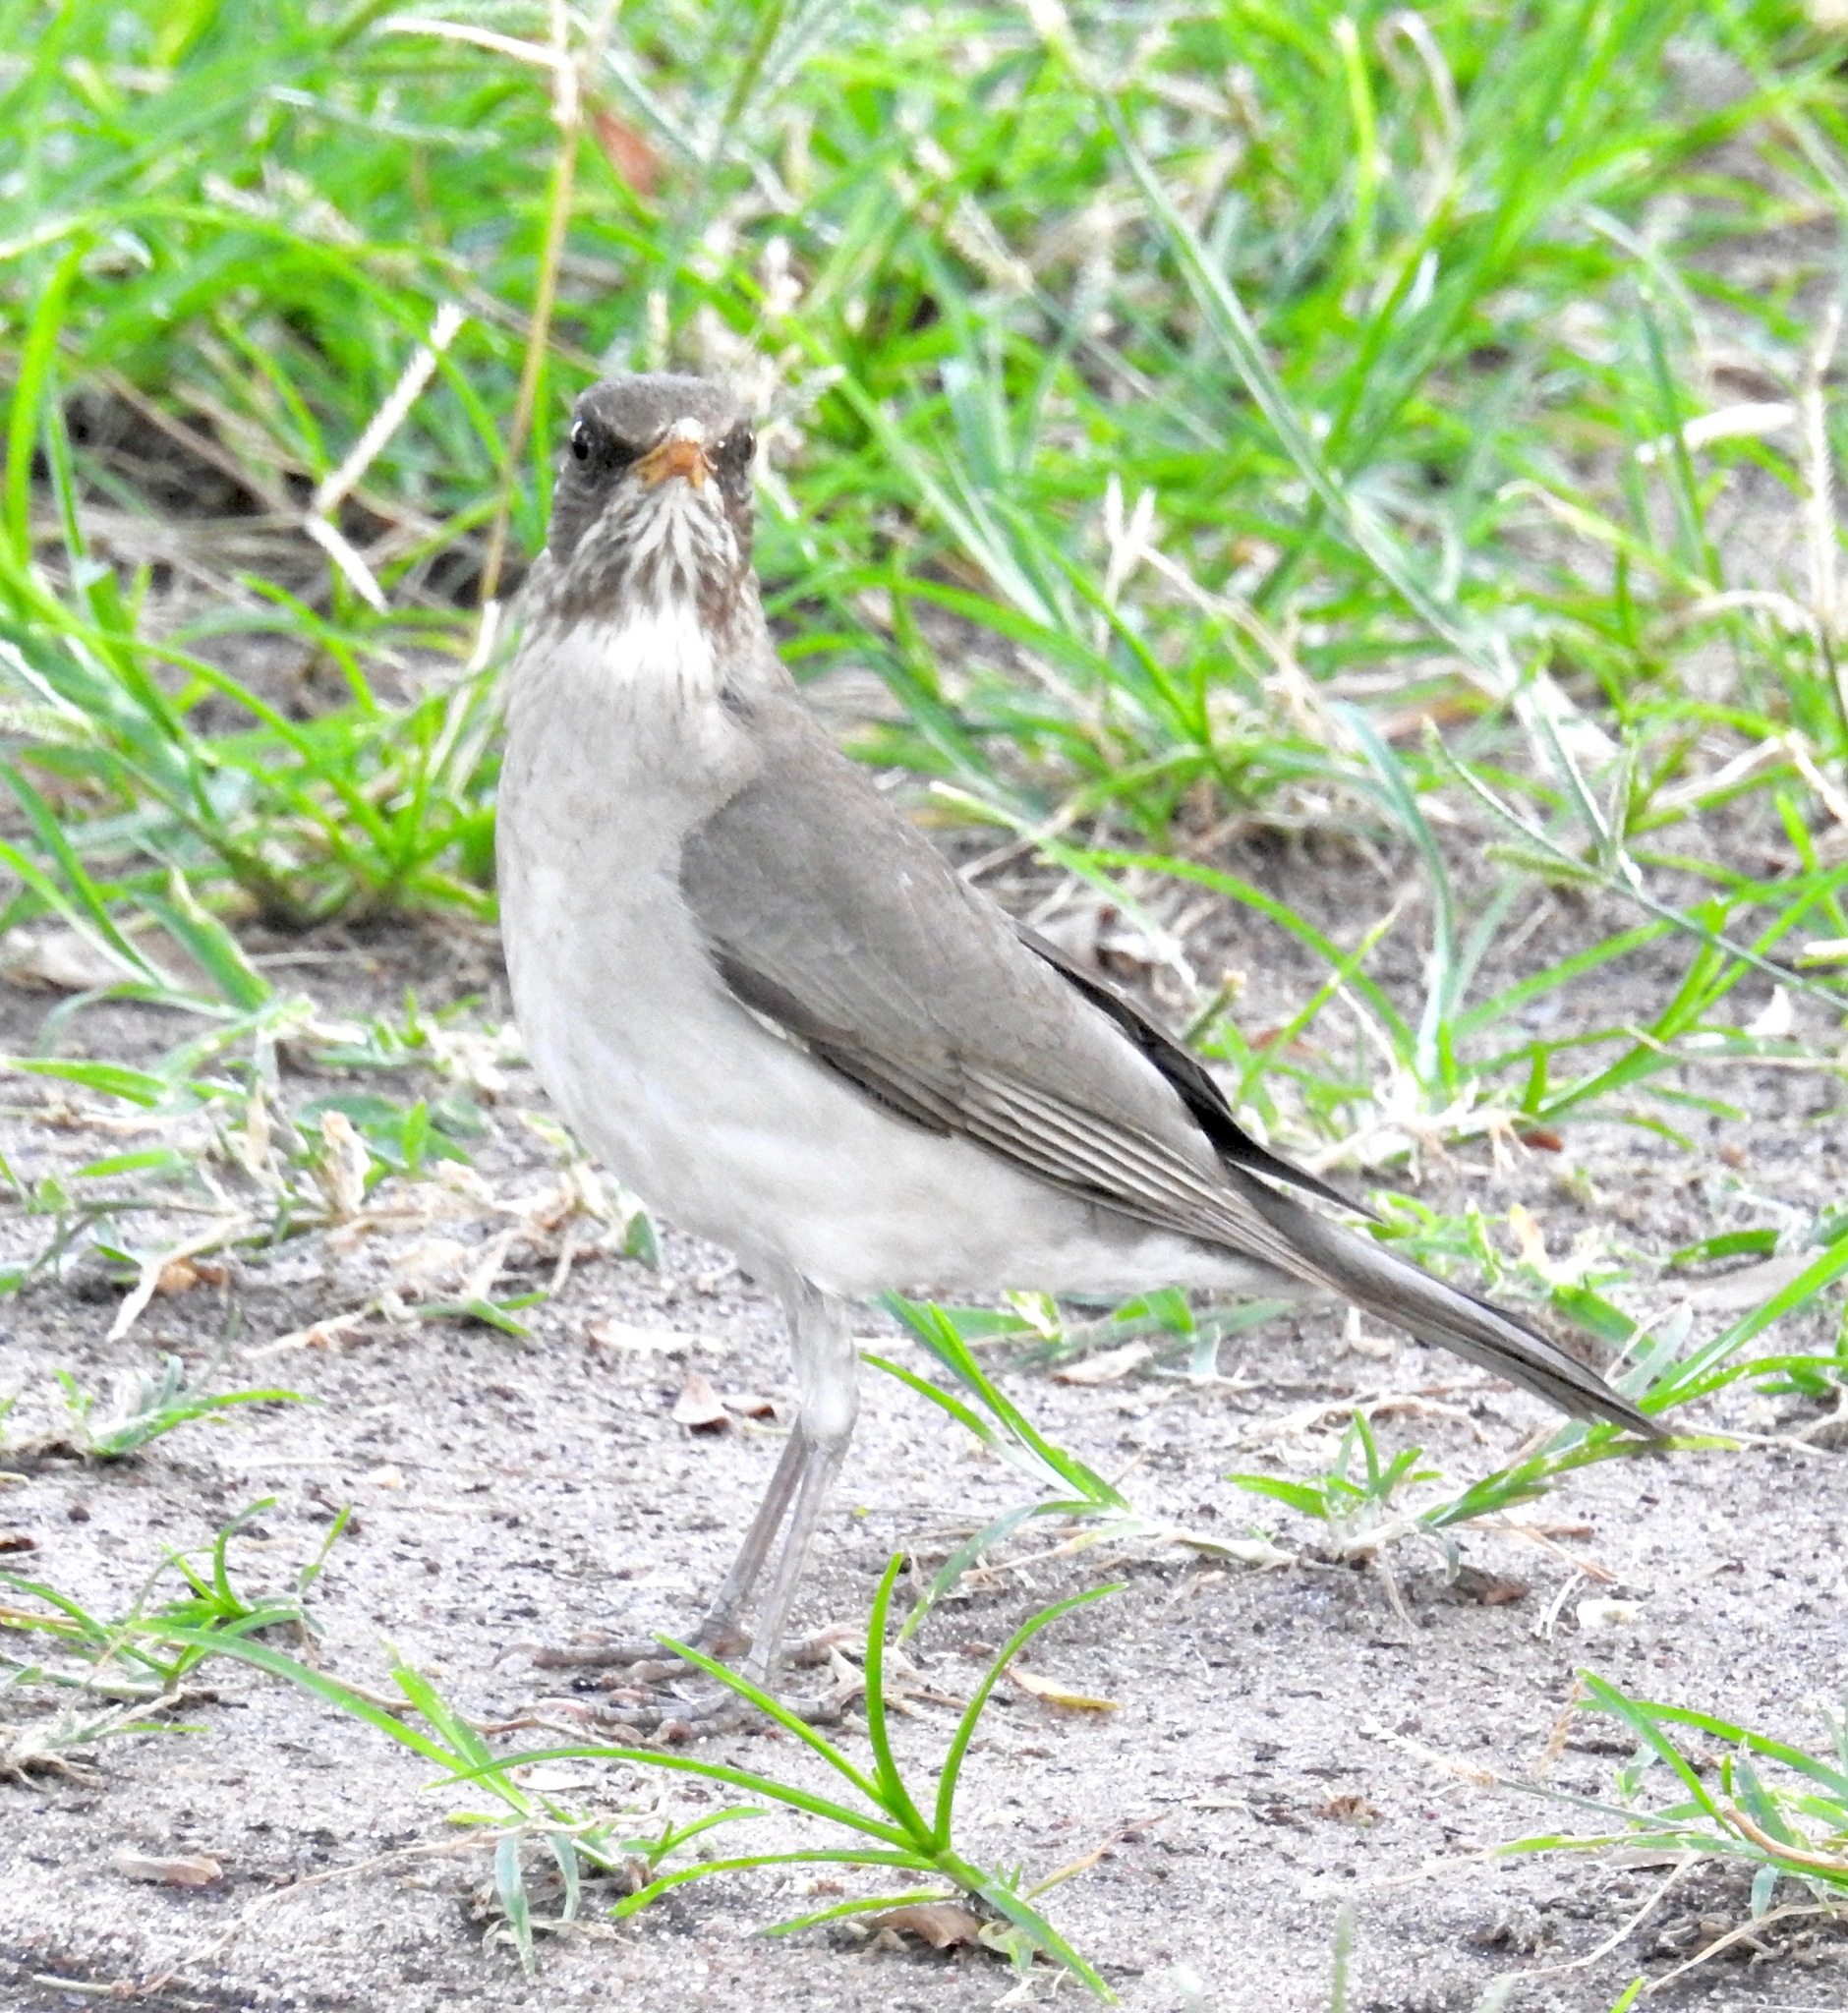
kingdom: Animalia
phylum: Chordata
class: Aves
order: Passeriformes
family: Turdidae
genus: Turdus
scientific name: Turdus amaurochalinus
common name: Creamy-bellied thrush
